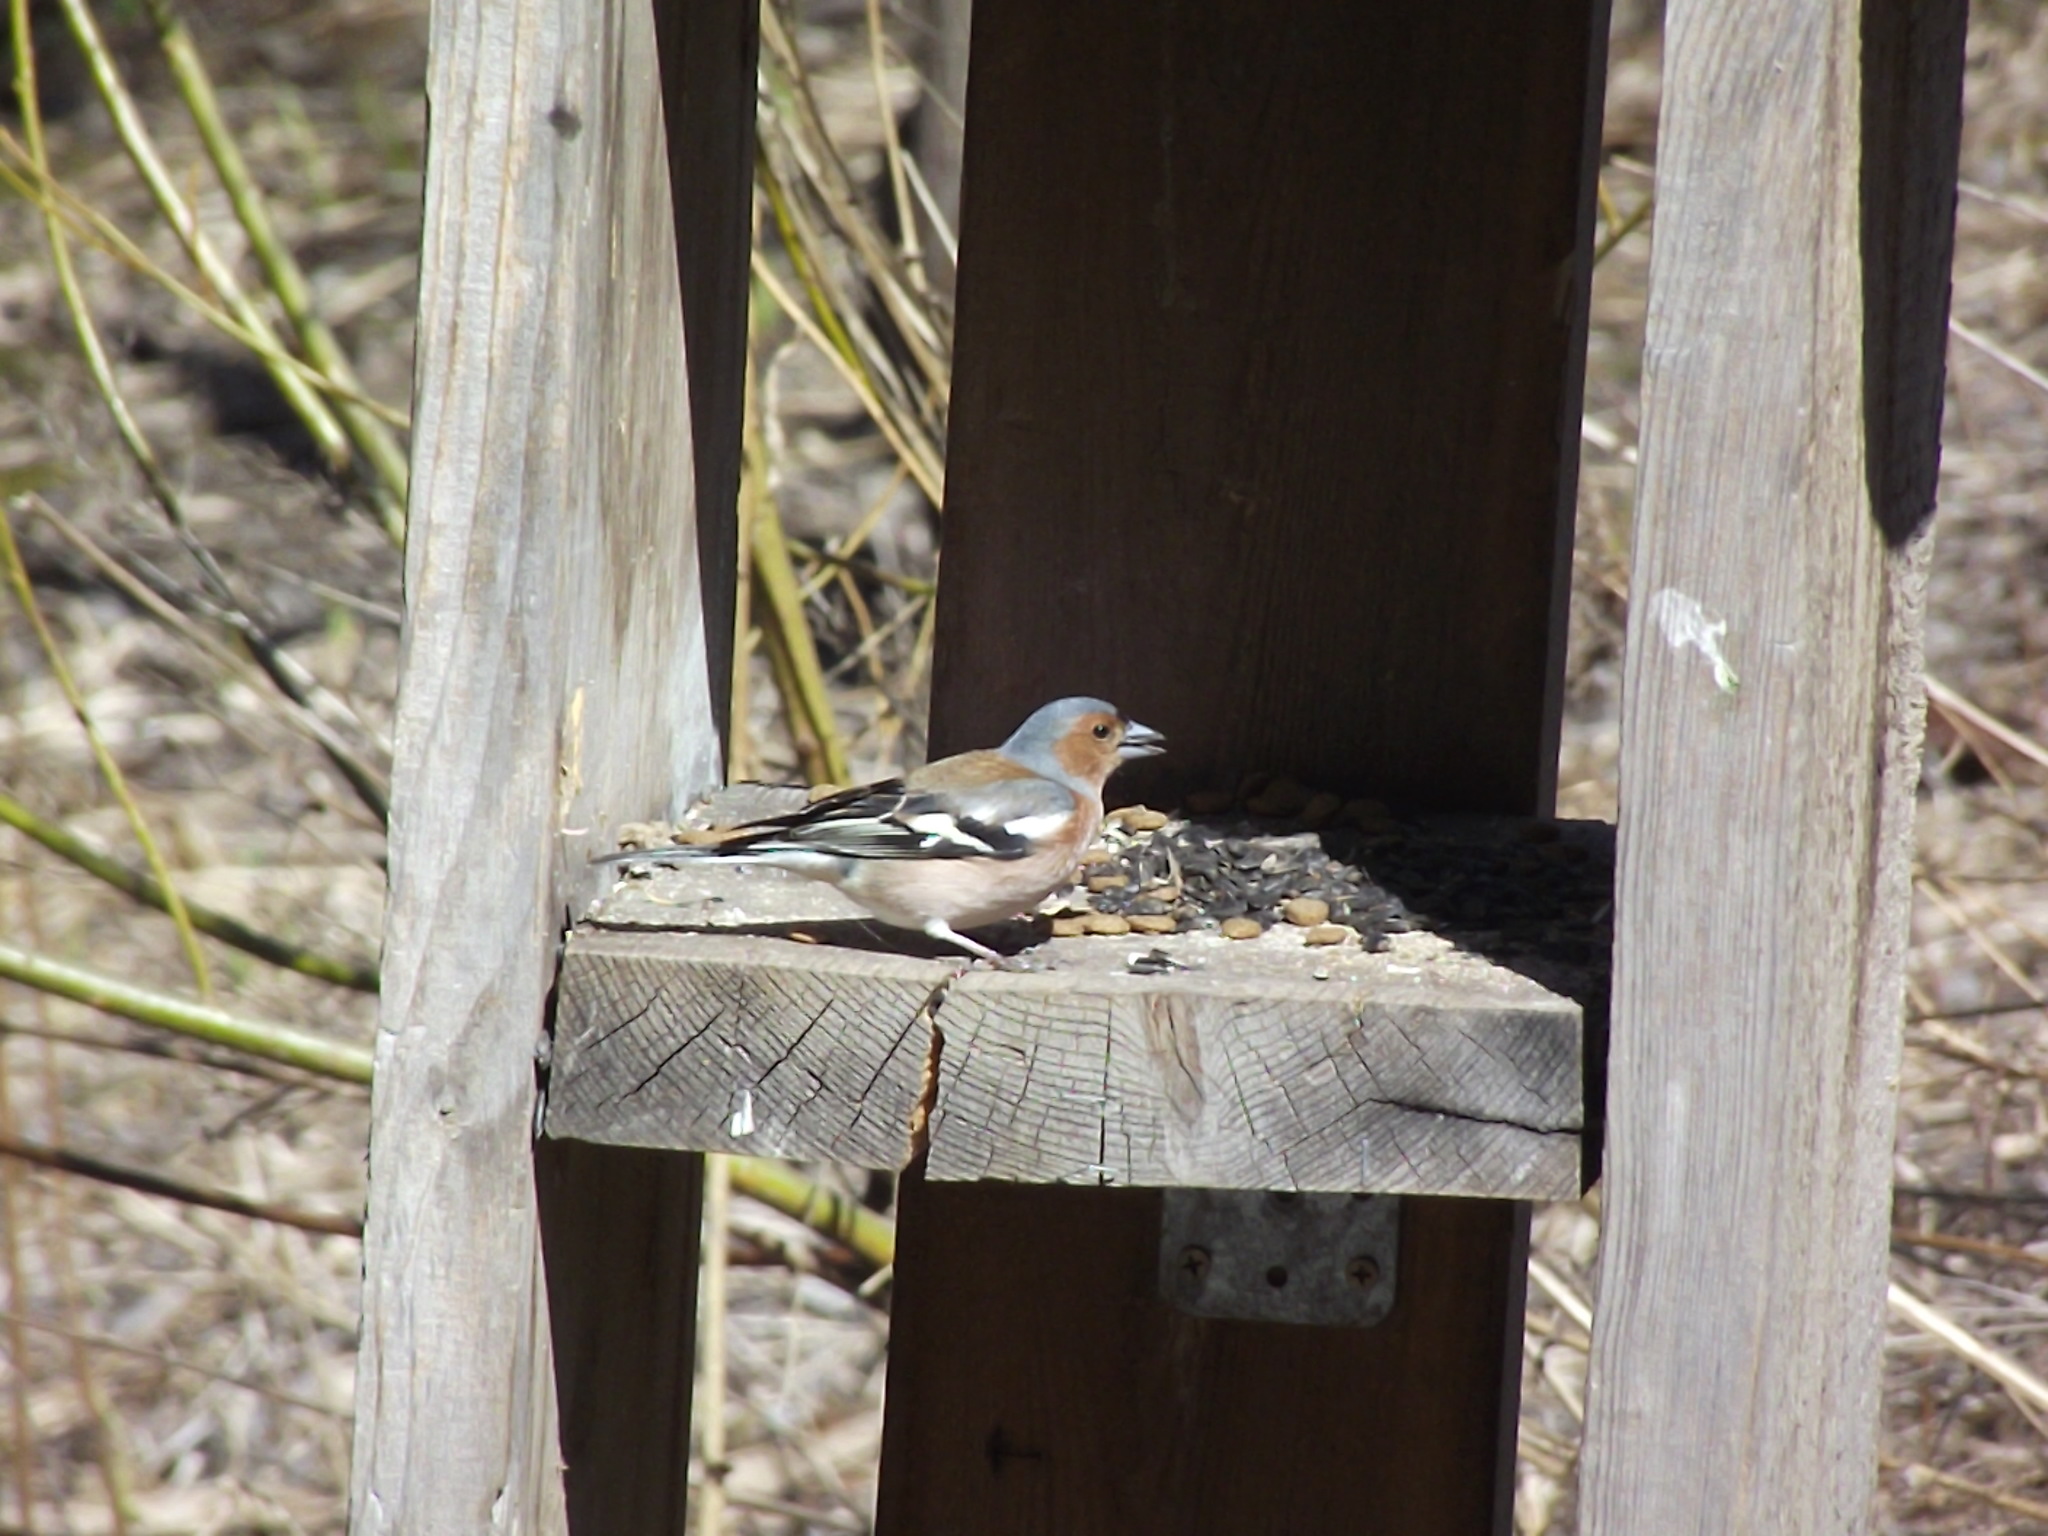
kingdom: Animalia
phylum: Chordata
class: Aves
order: Passeriformes
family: Fringillidae
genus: Fringilla
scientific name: Fringilla coelebs
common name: Common chaffinch
